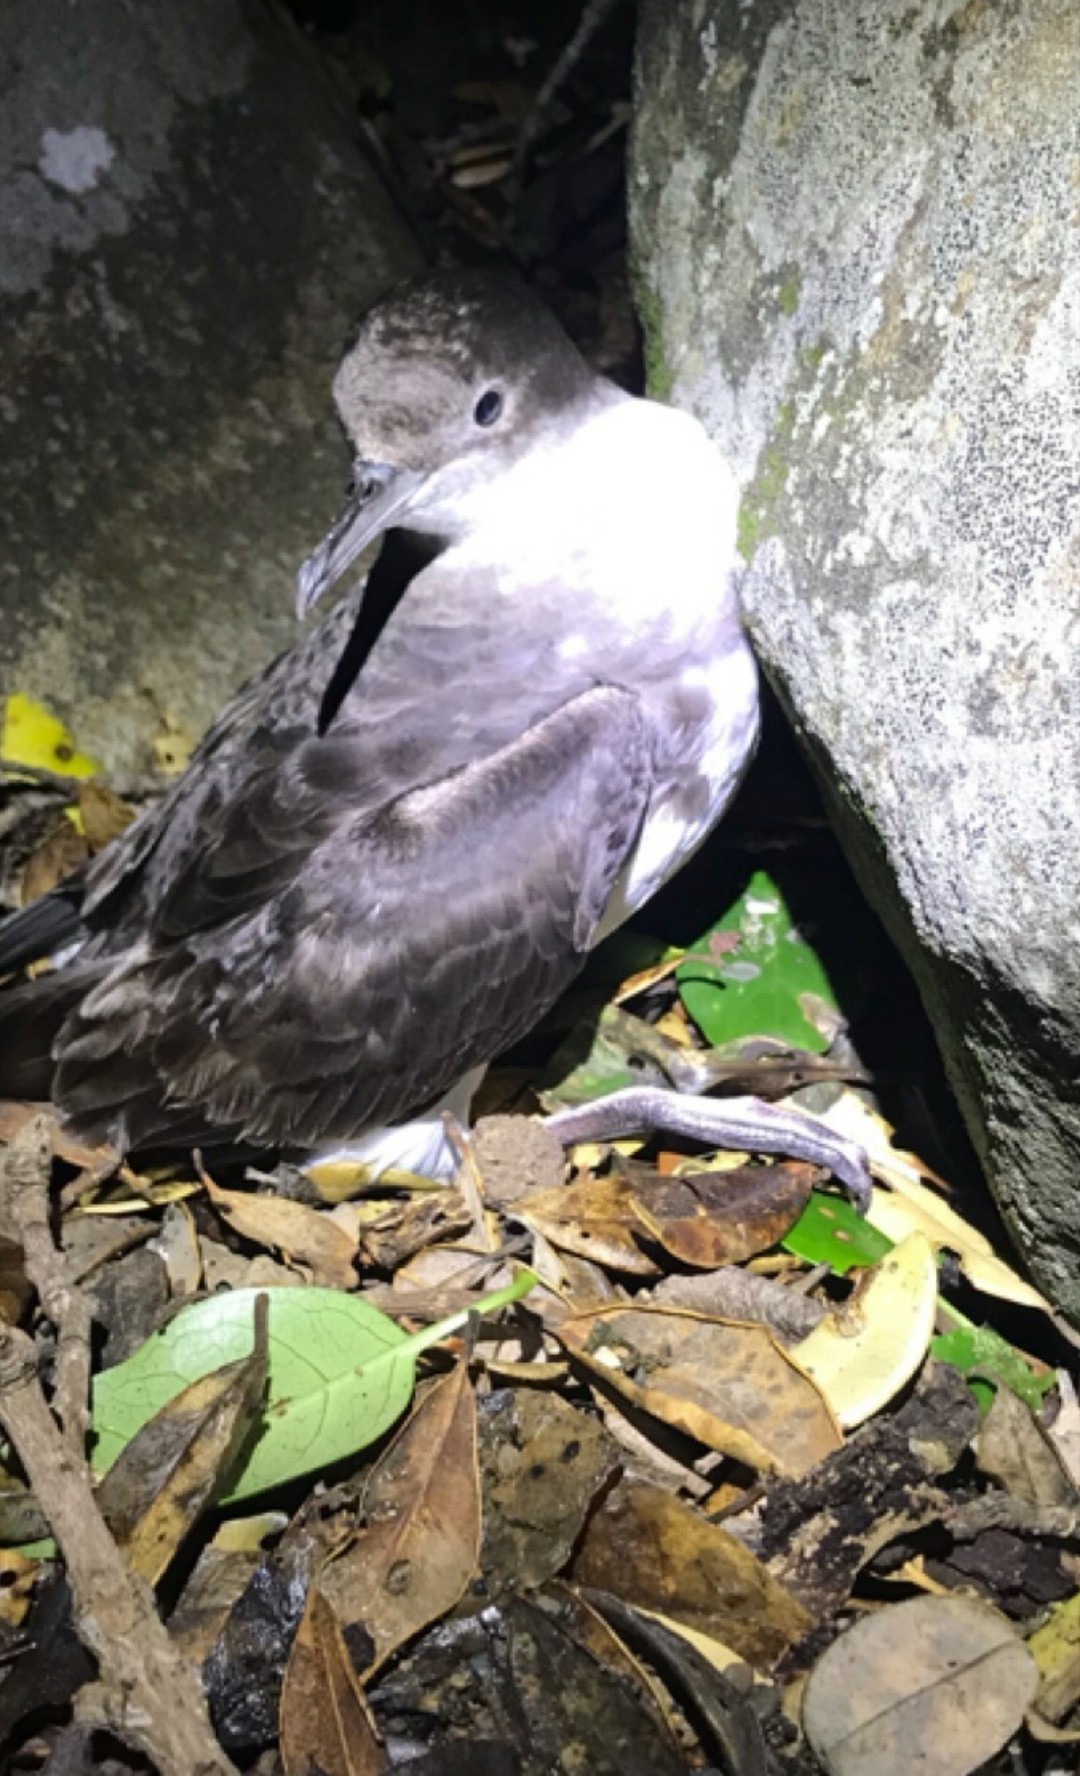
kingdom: Animalia
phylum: Chordata
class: Aves
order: Procellariiformes
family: Procellariidae
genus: Puffinus
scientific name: Puffinus gavia
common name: Fluttering shearwater
